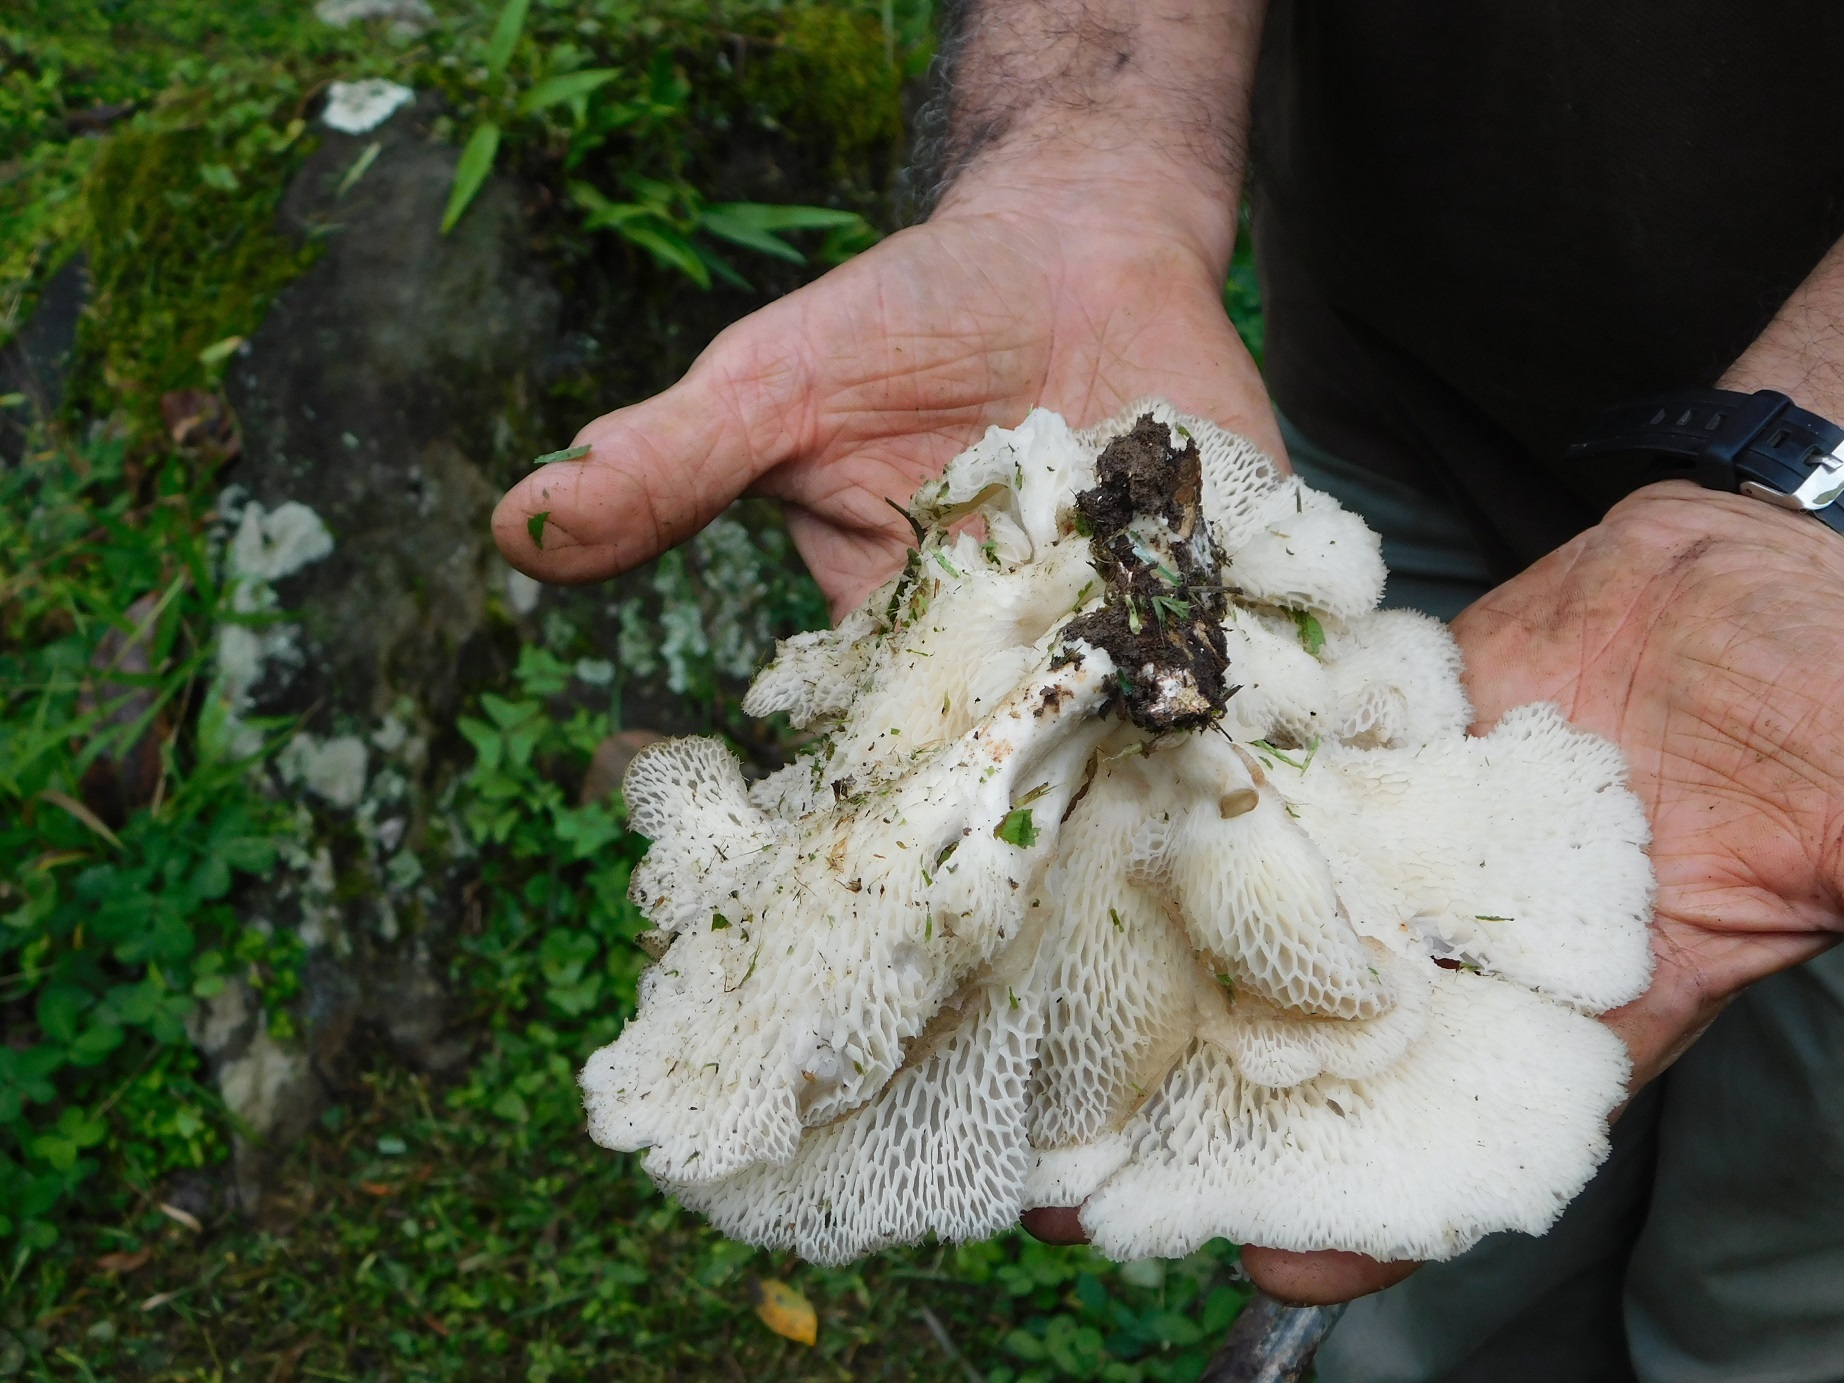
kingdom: Fungi
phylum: Basidiomycota
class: Agaricomycetes
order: Polyporales
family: Polyporaceae
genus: Favolus
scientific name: Favolus rugulosus
